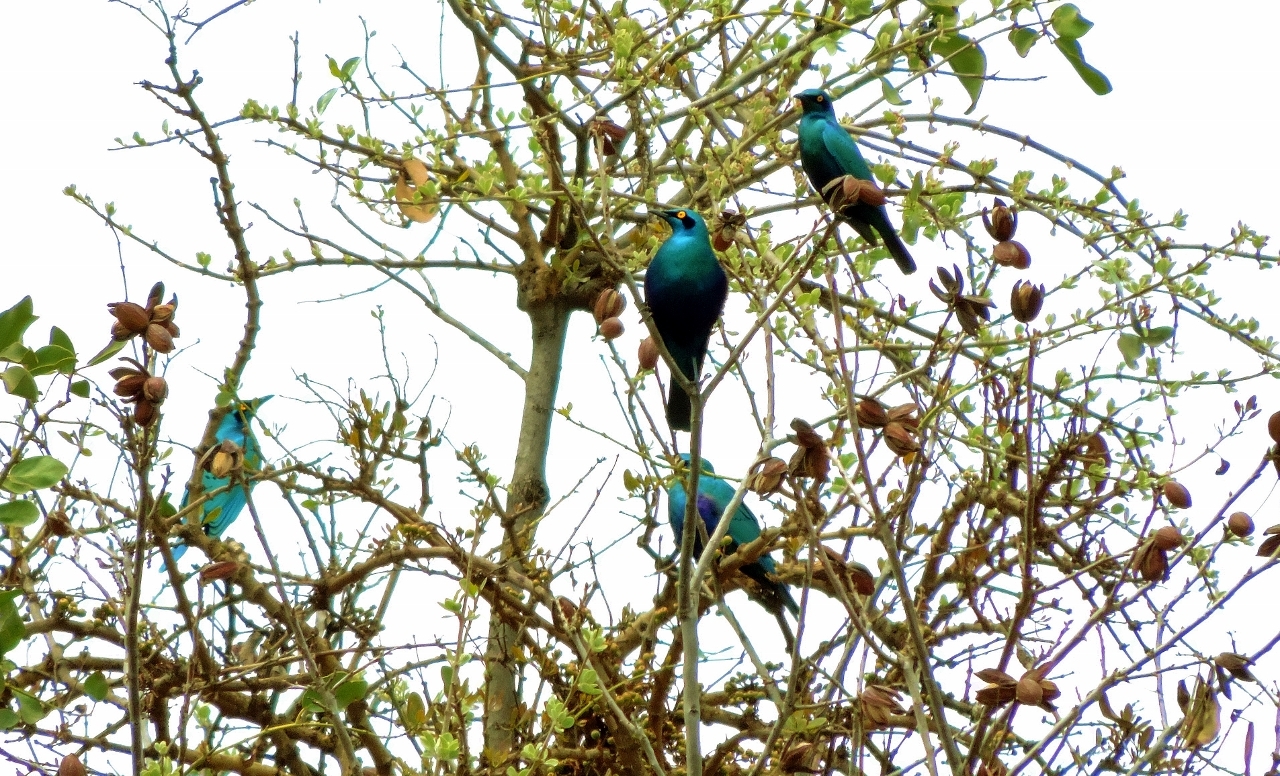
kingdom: Animalia
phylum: Chordata
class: Aves
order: Passeriformes
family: Sturnidae
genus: Lamprotornis
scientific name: Lamprotornis chalybaeus
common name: Greater blue-eared starling
